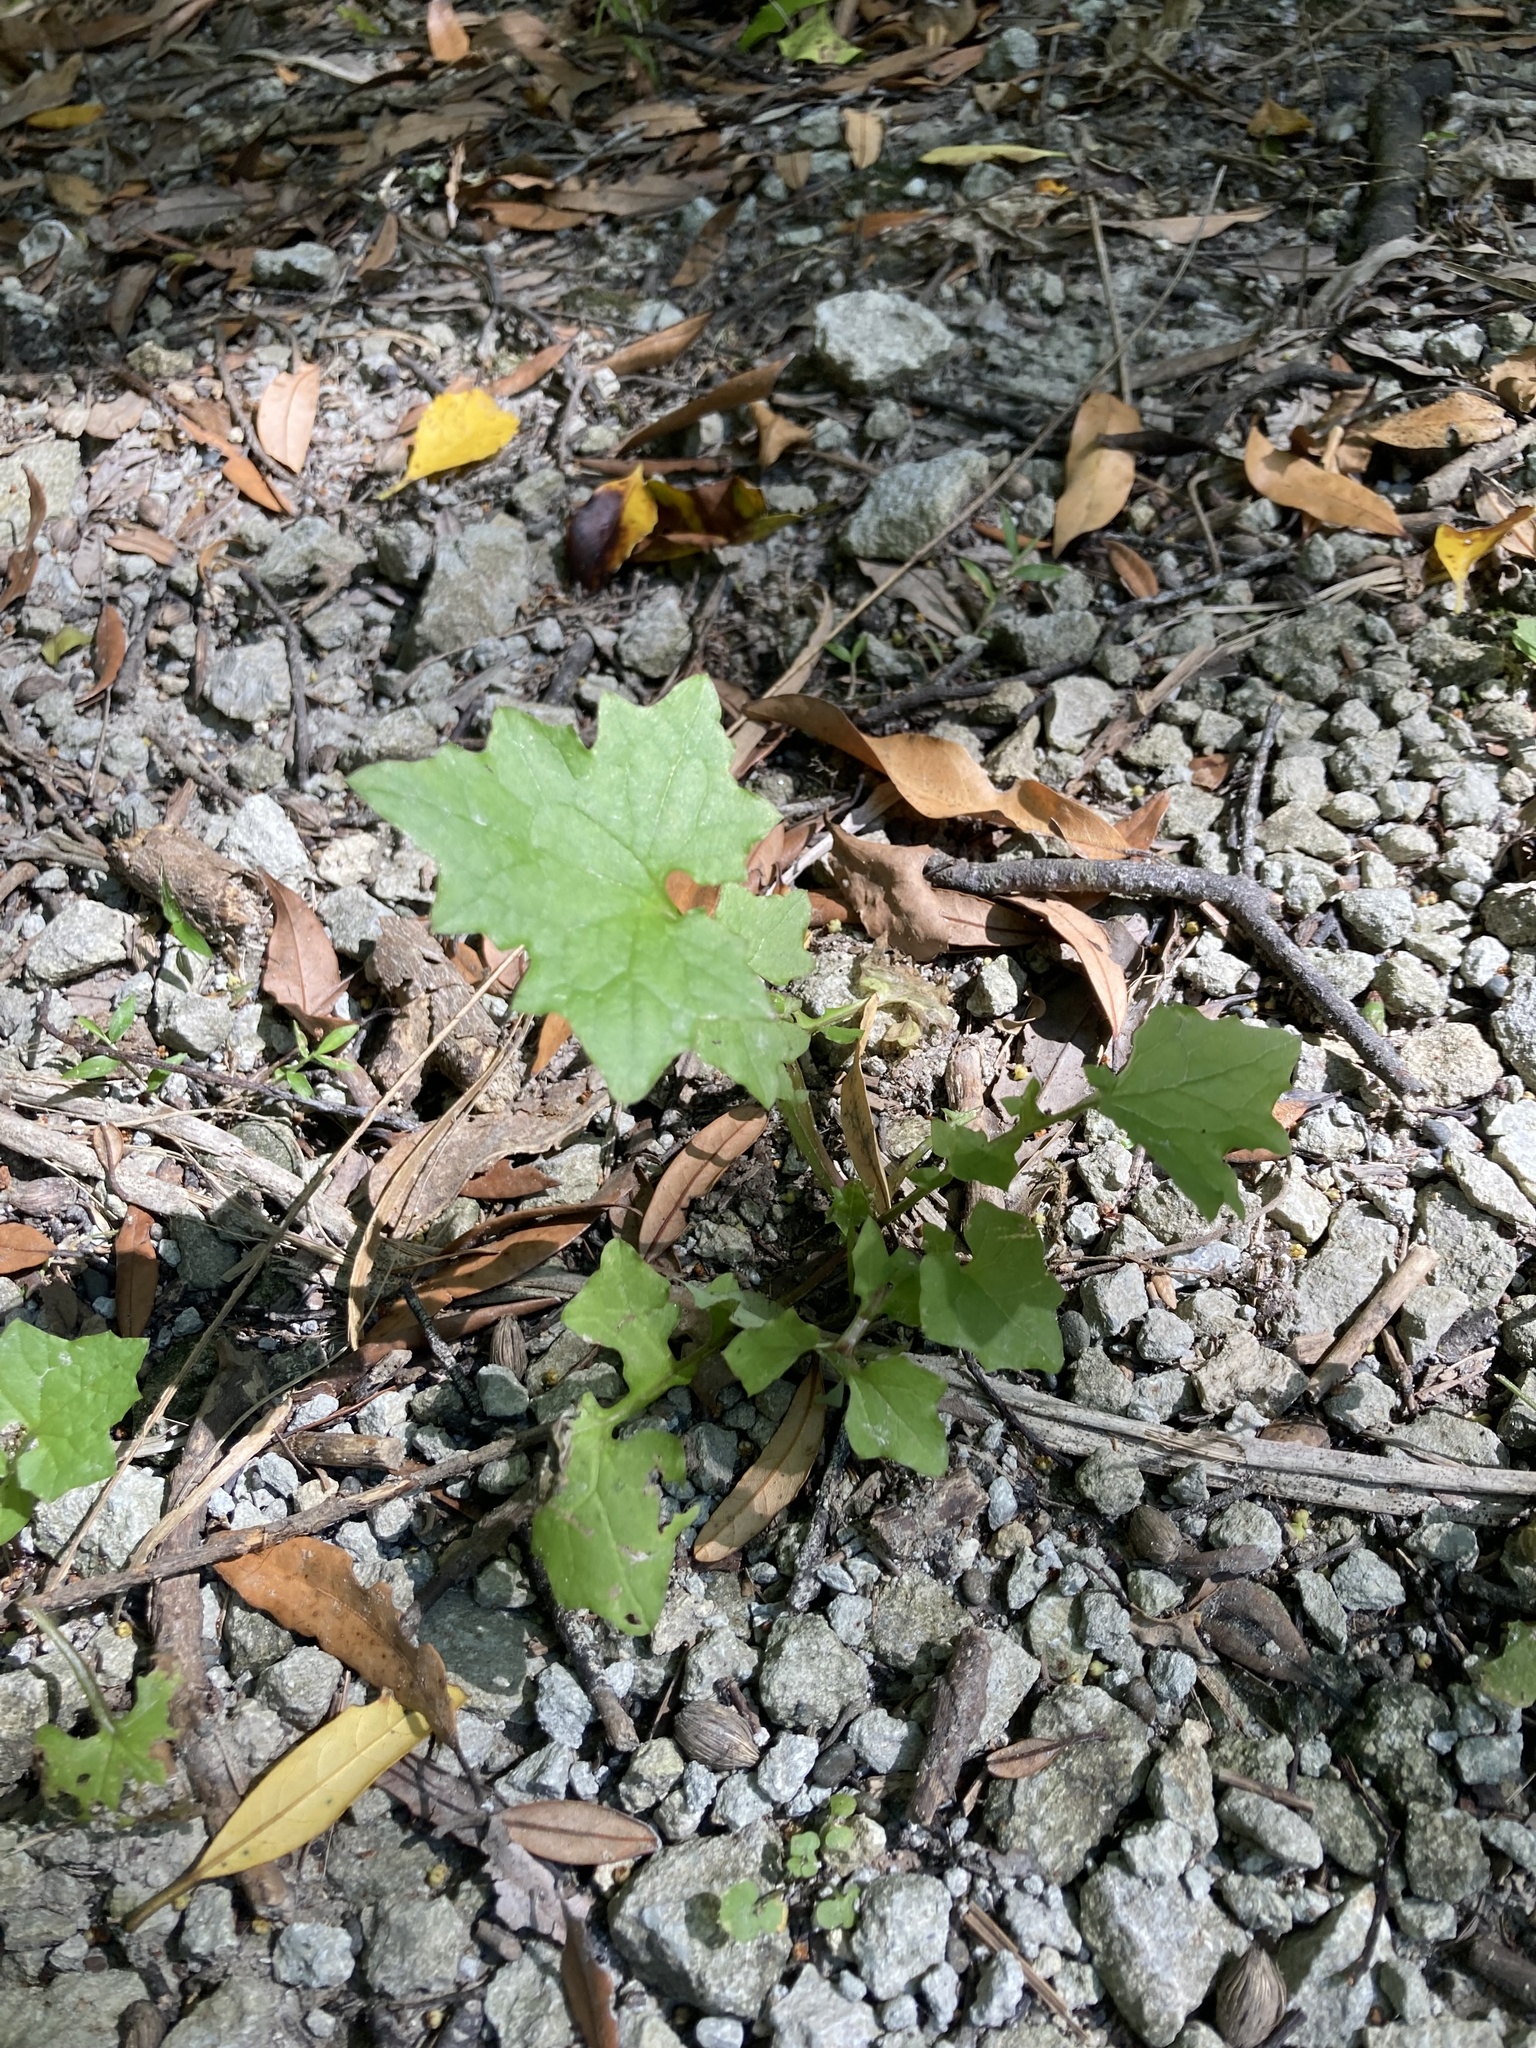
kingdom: Plantae
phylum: Tracheophyta
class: Magnoliopsida
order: Asterales
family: Asteraceae
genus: Mycelis
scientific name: Mycelis muralis
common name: Wall lettuce
